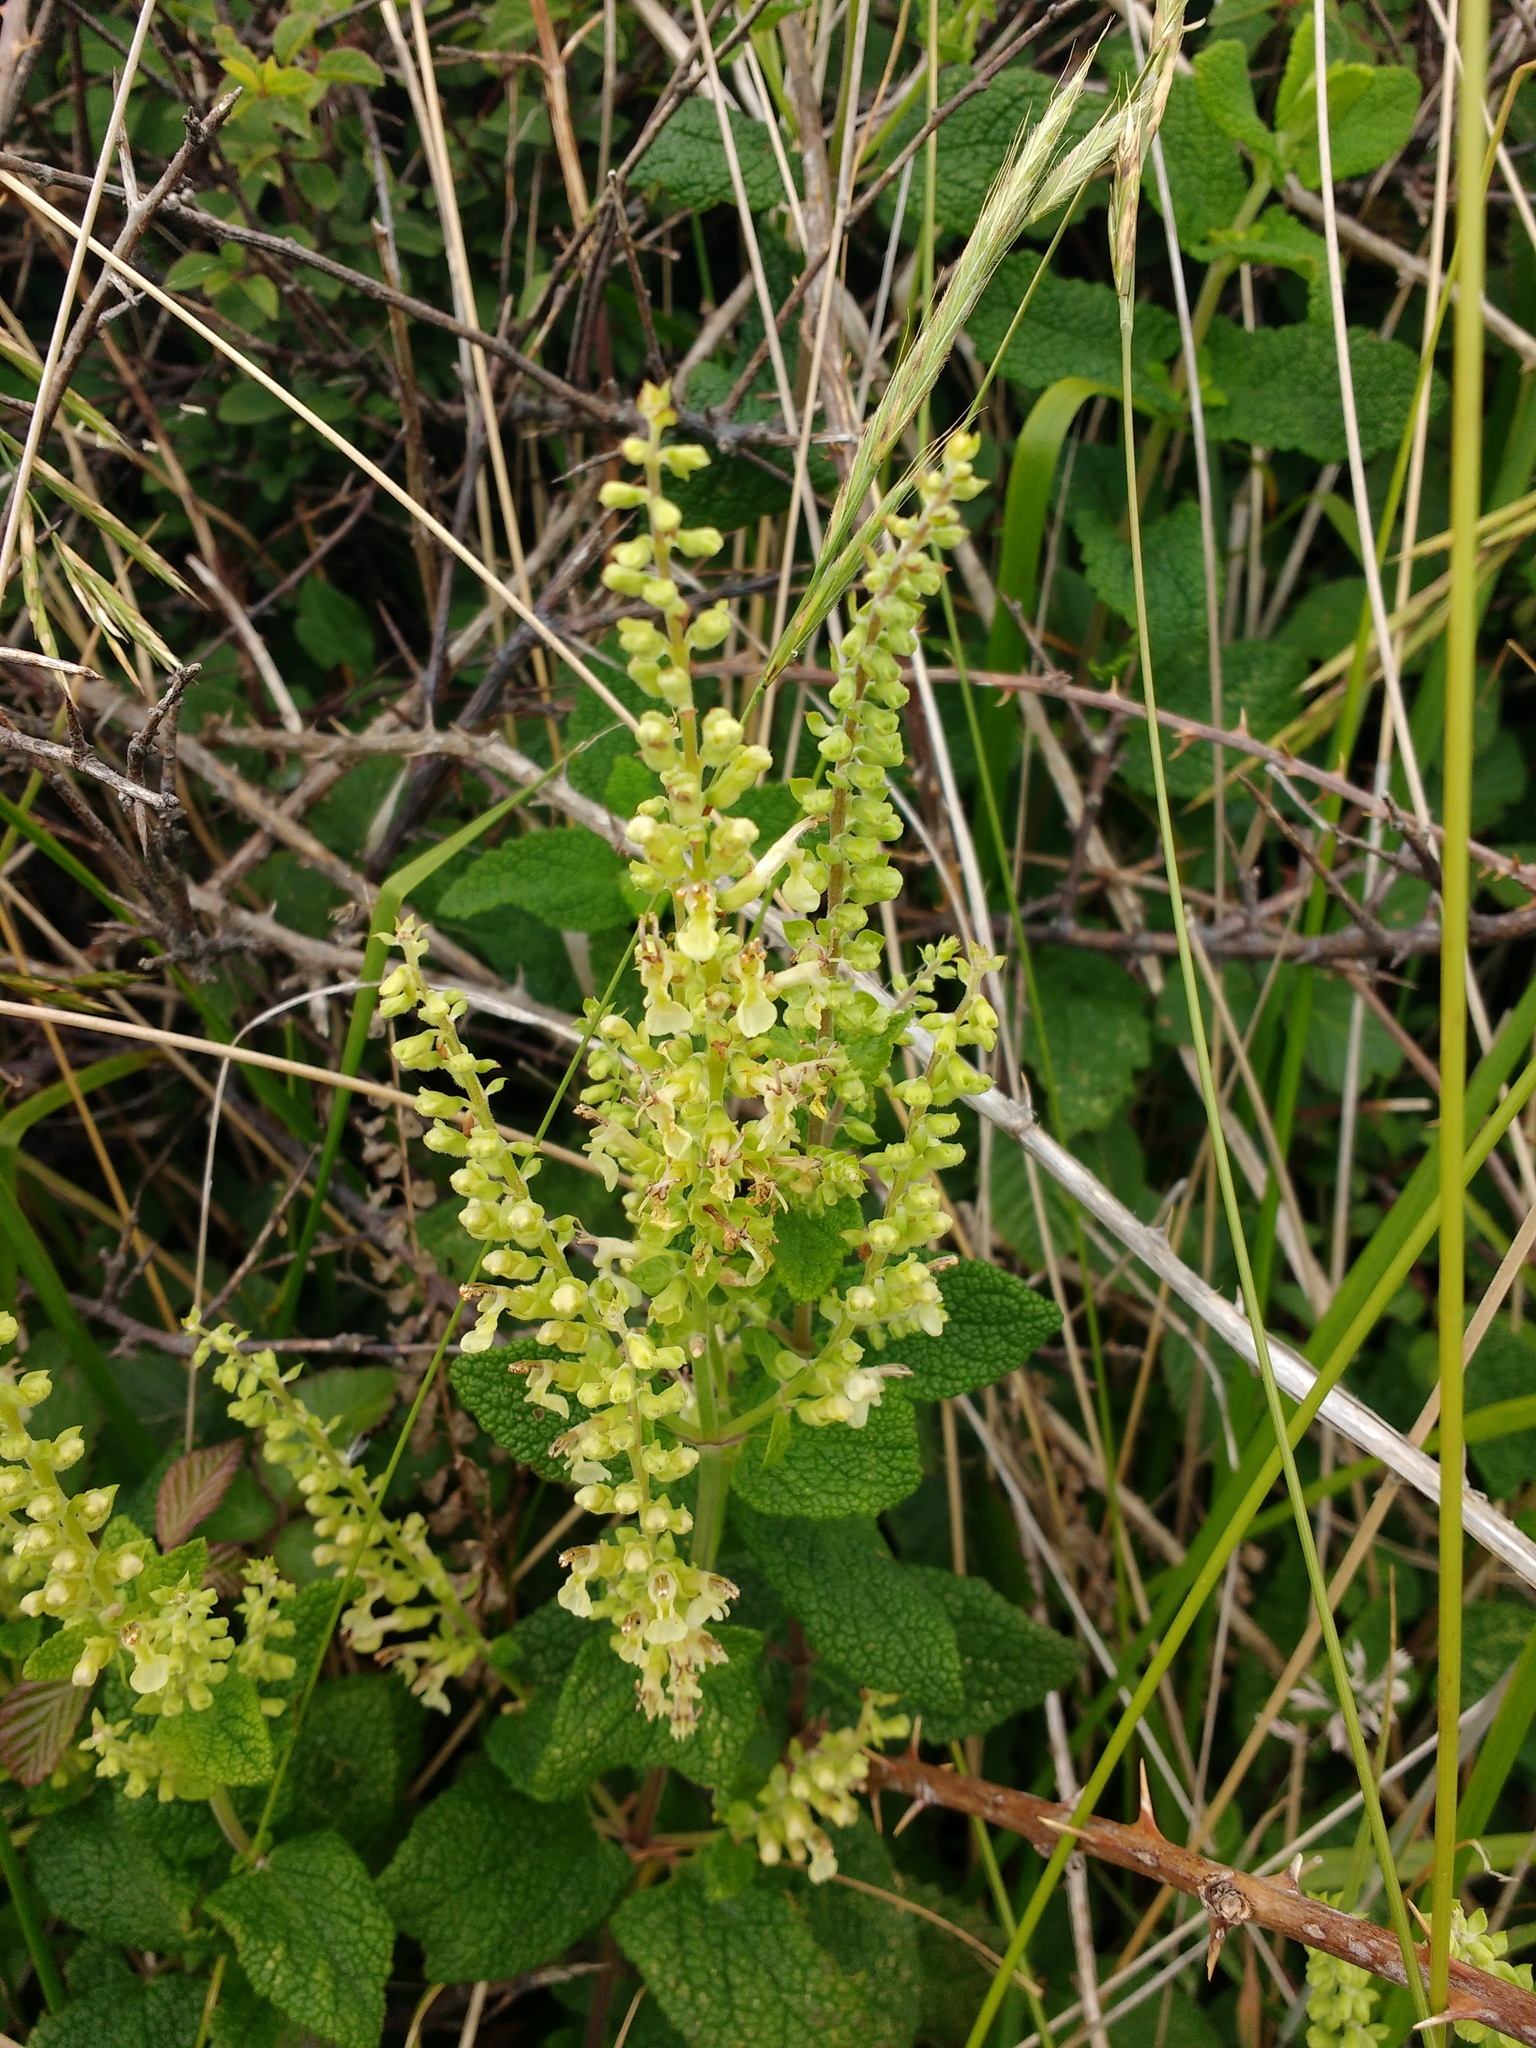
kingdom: Plantae
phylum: Tracheophyta
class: Magnoliopsida
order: Lamiales
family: Lamiaceae
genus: Teucrium
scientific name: Teucrium scorodonia
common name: Woodland germander
